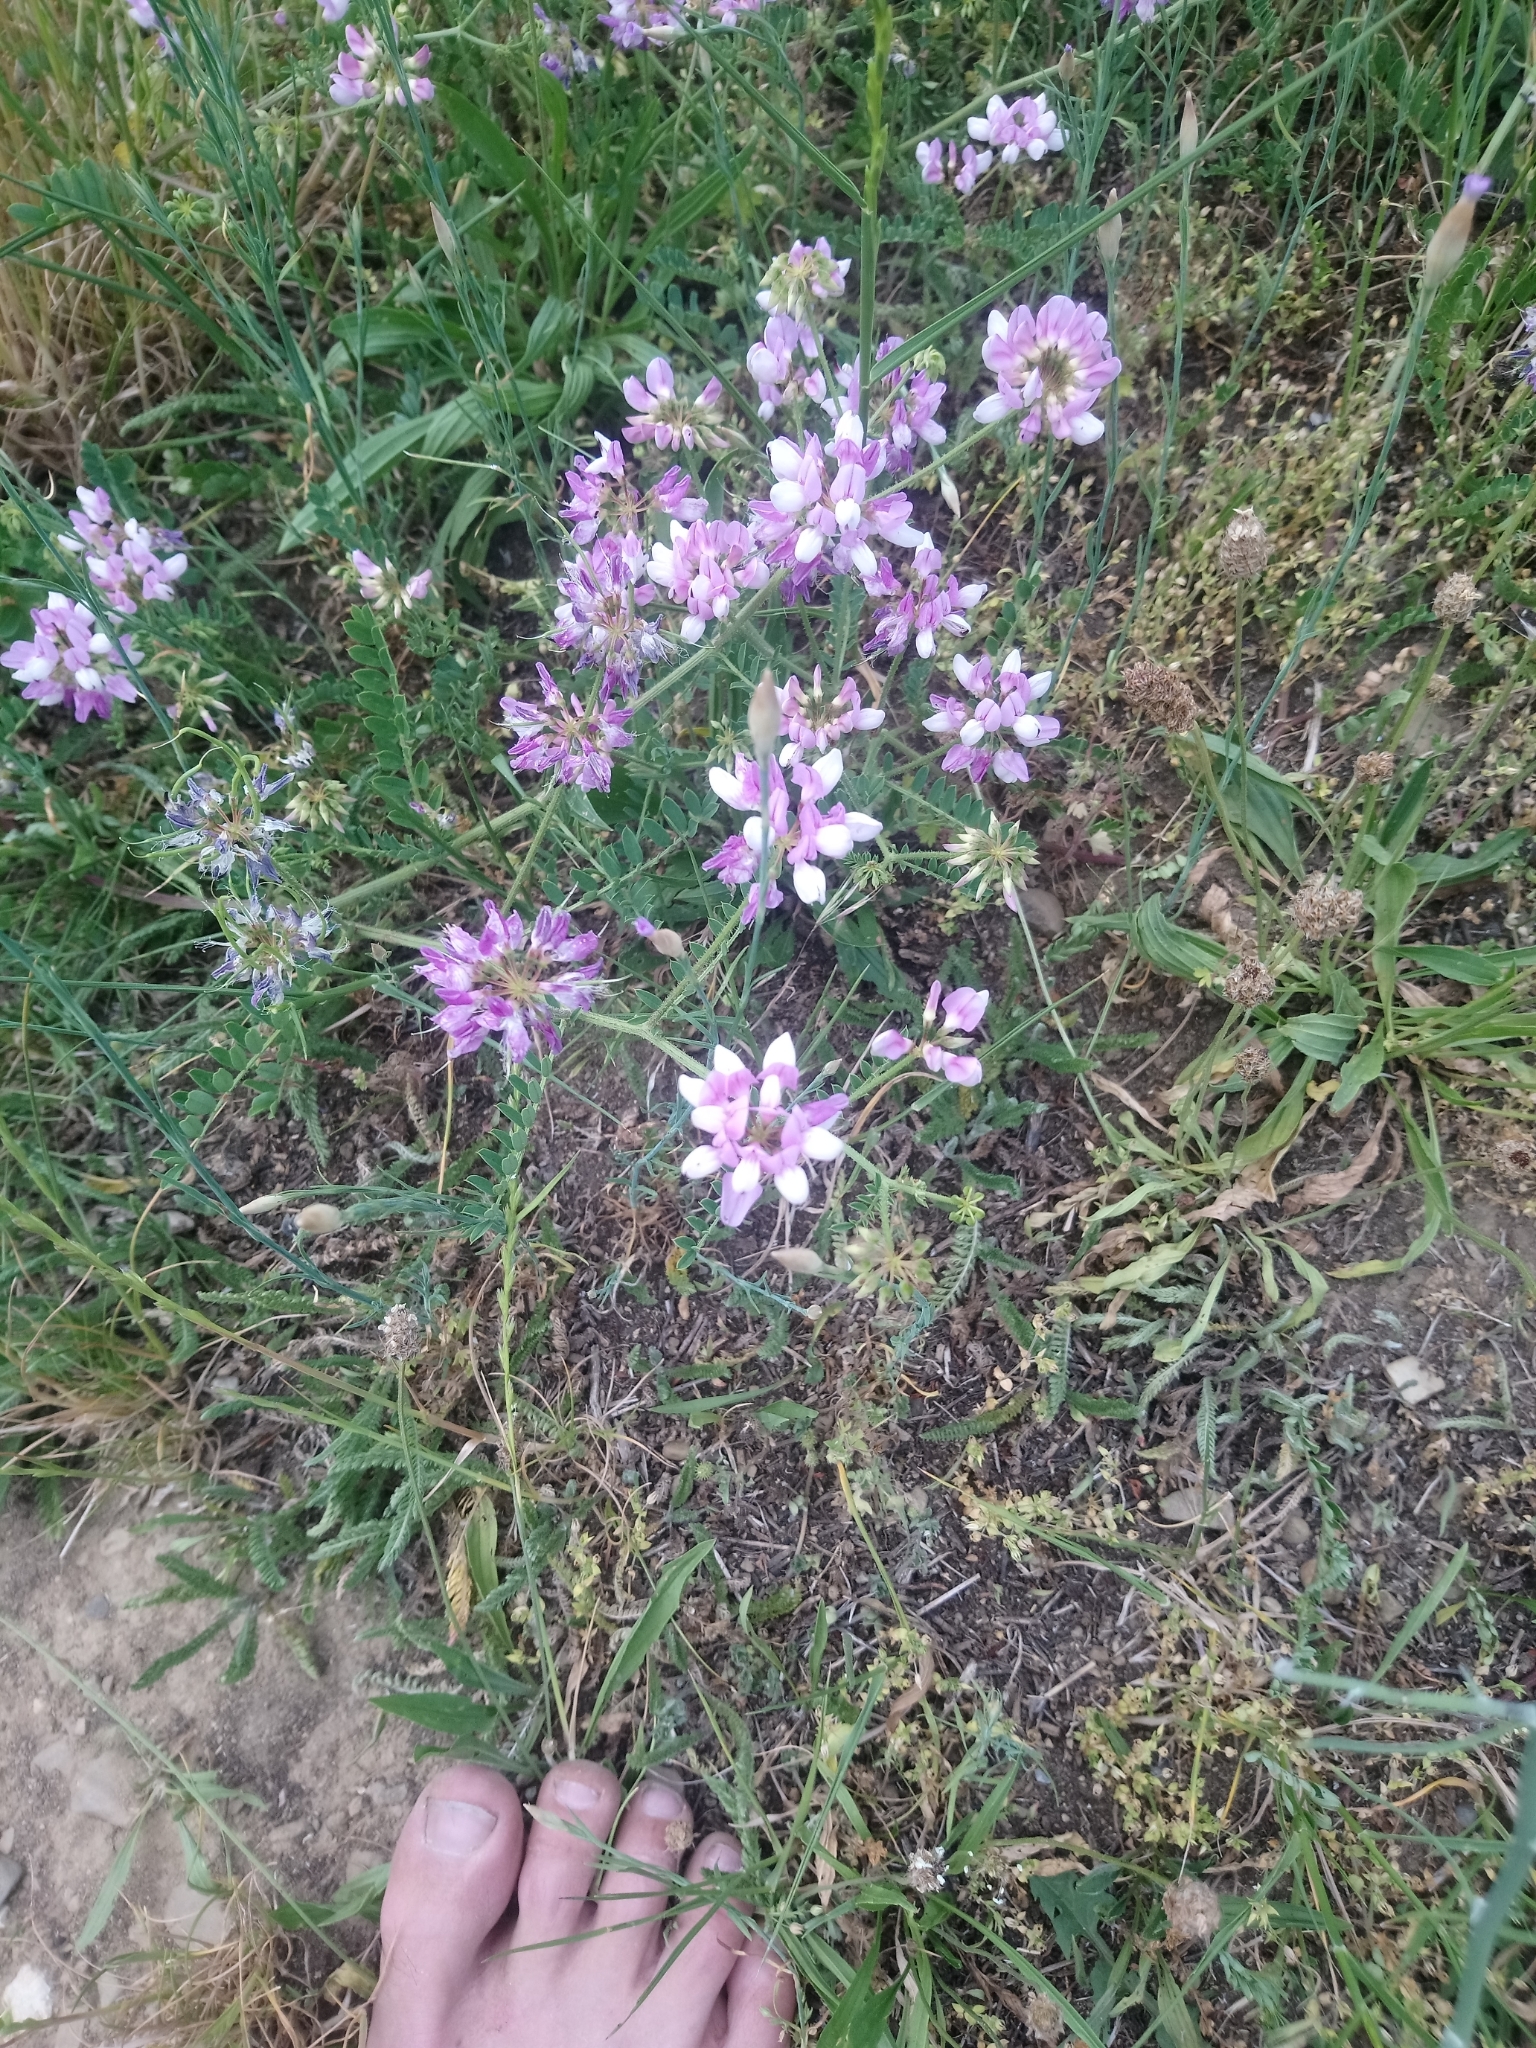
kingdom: Plantae
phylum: Tracheophyta
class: Magnoliopsida
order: Fabales
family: Fabaceae
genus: Coronilla
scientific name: Coronilla varia
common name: Crownvetch
